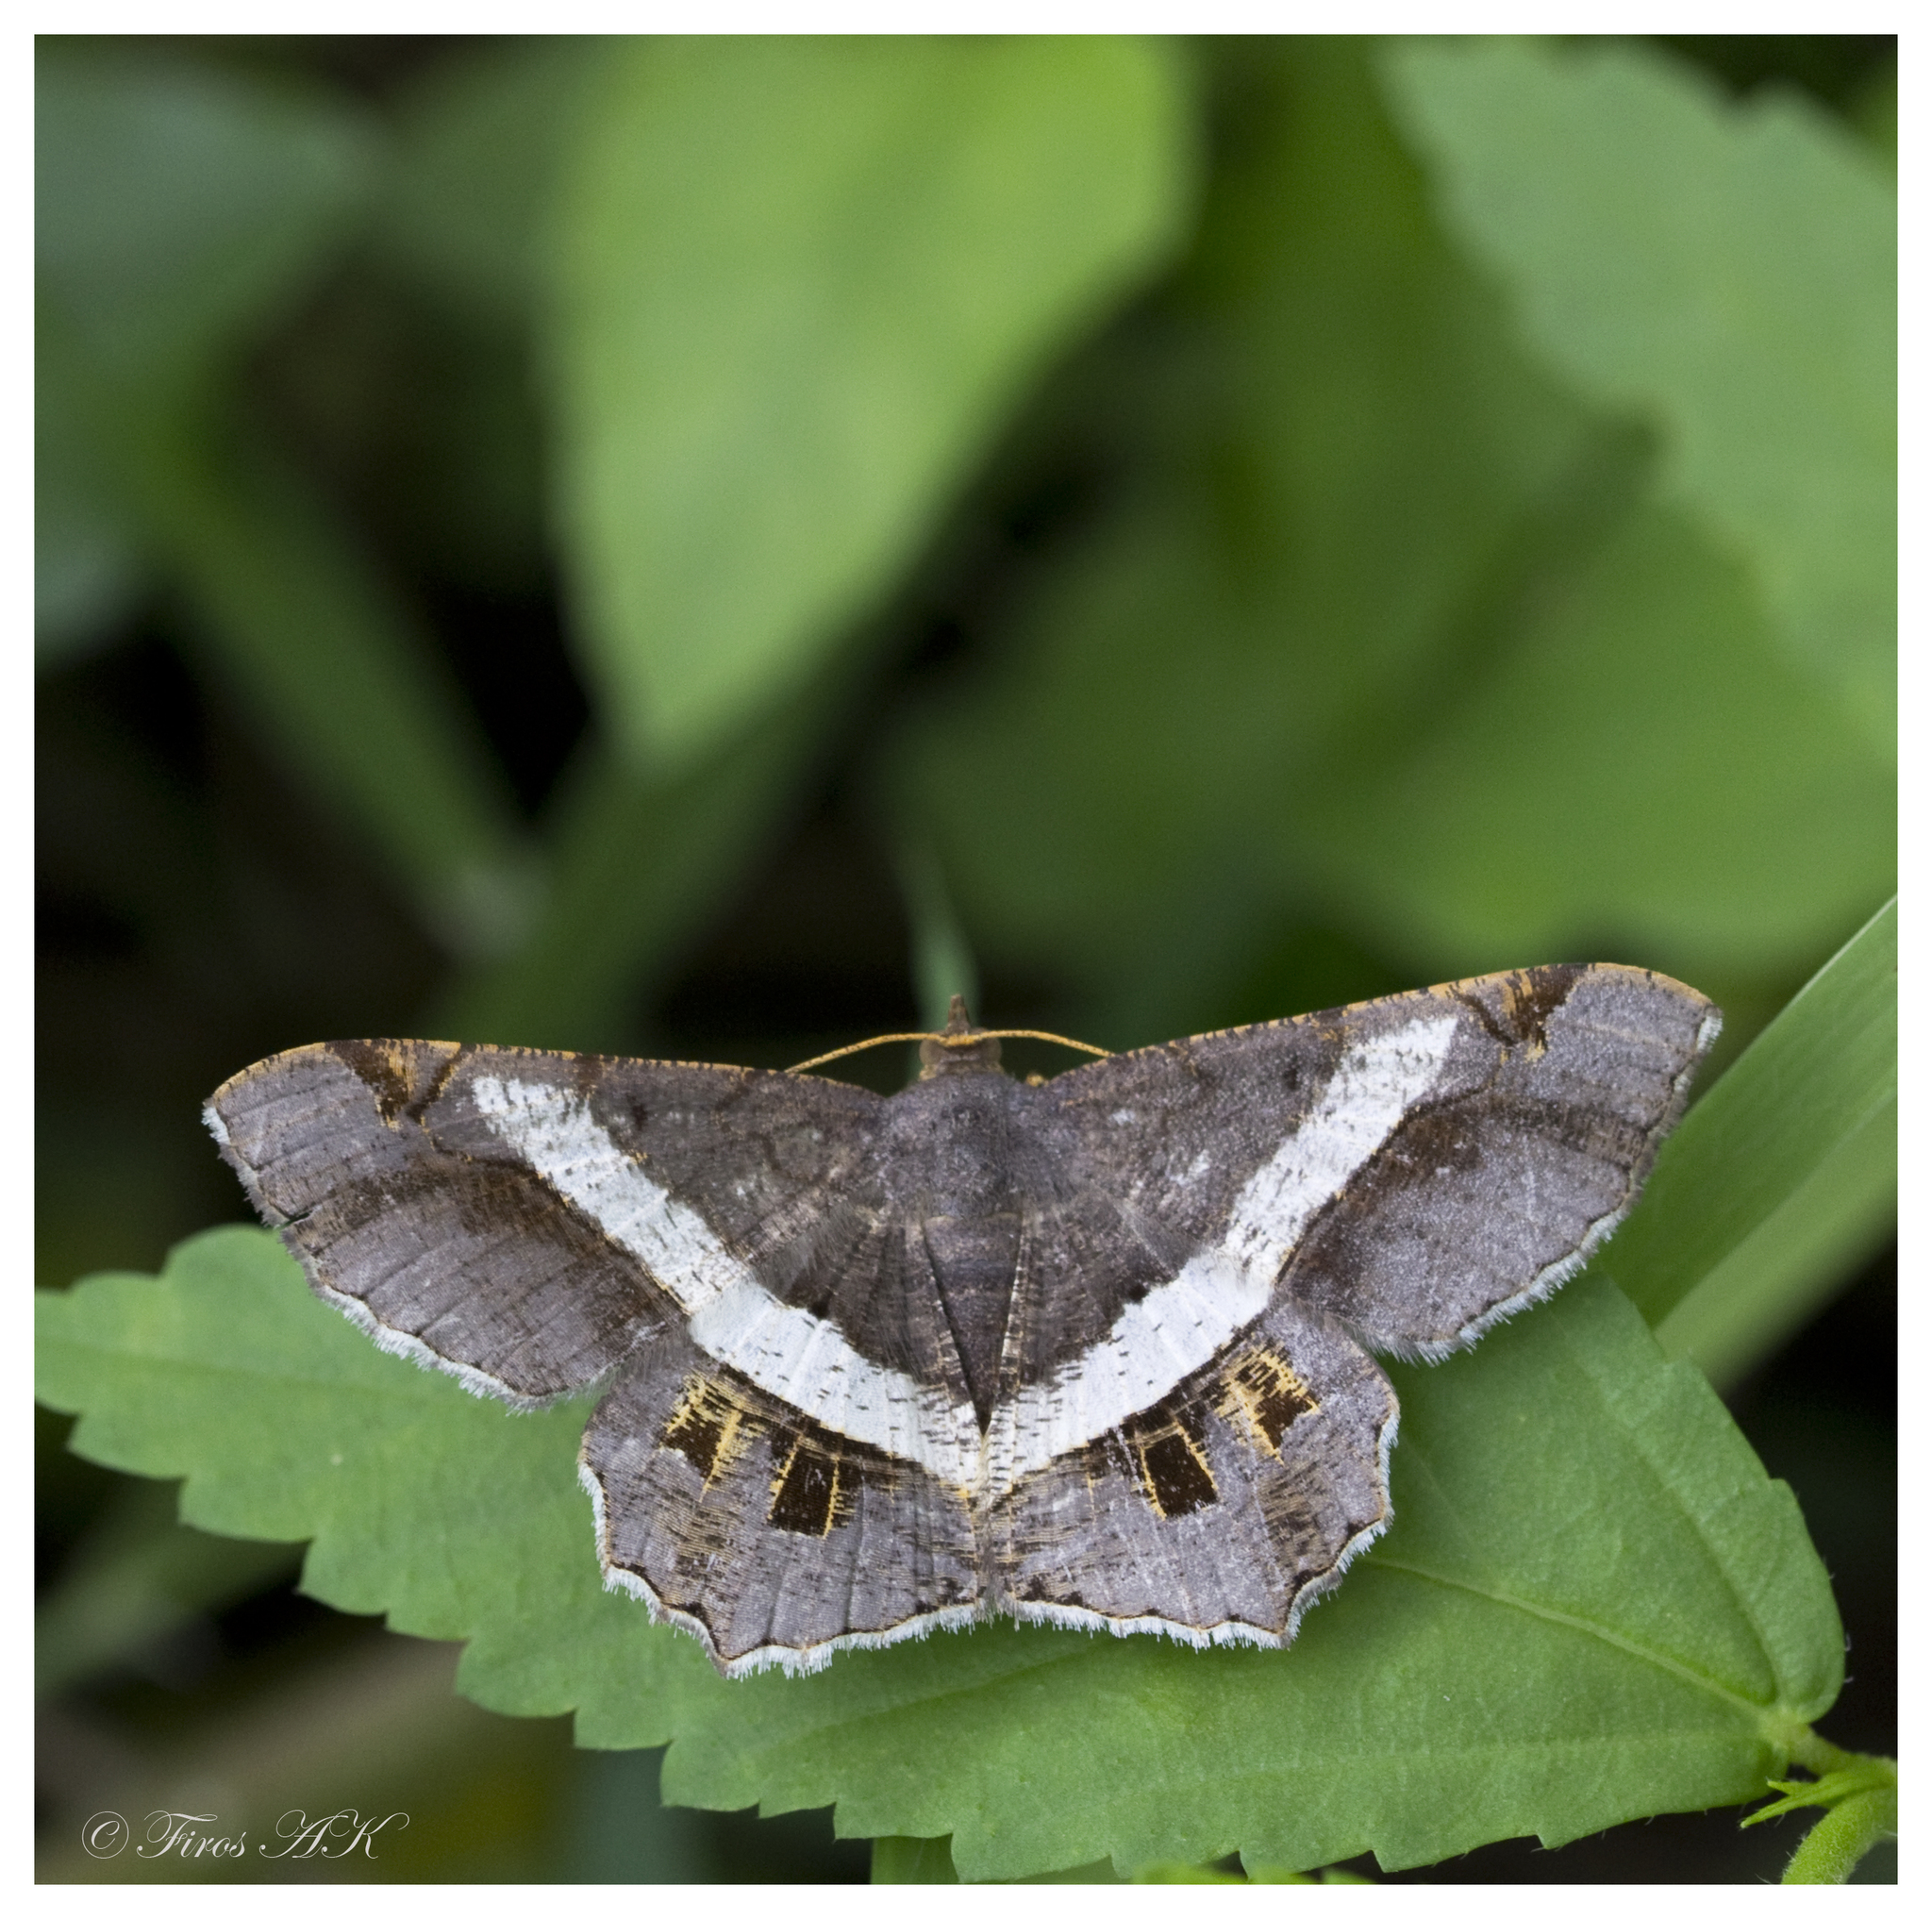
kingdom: Animalia
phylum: Arthropoda
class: Insecta
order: Lepidoptera
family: Geometridae
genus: Chiasmia
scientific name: Chiasmia eleonora
